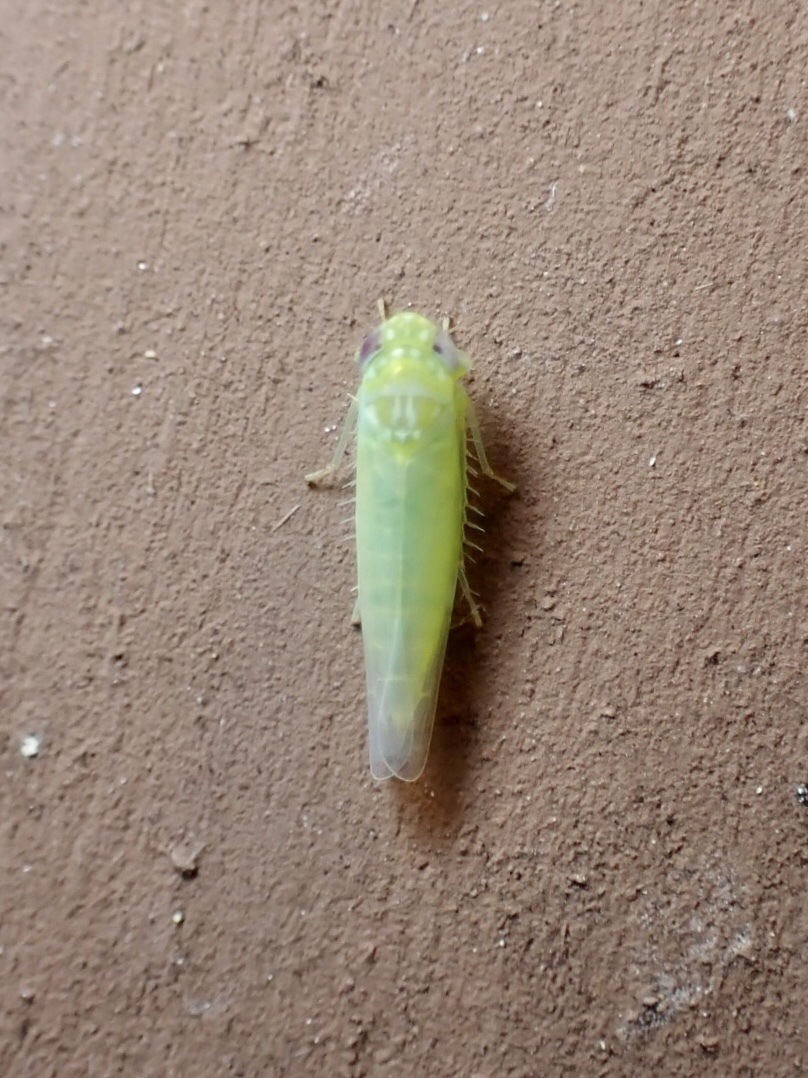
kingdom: Animalia
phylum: Arthropoda
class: Insecta
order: Hemiptera
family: Cicadellidae
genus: Empoasca
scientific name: Empoasca fabae
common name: Potato leafhopper
